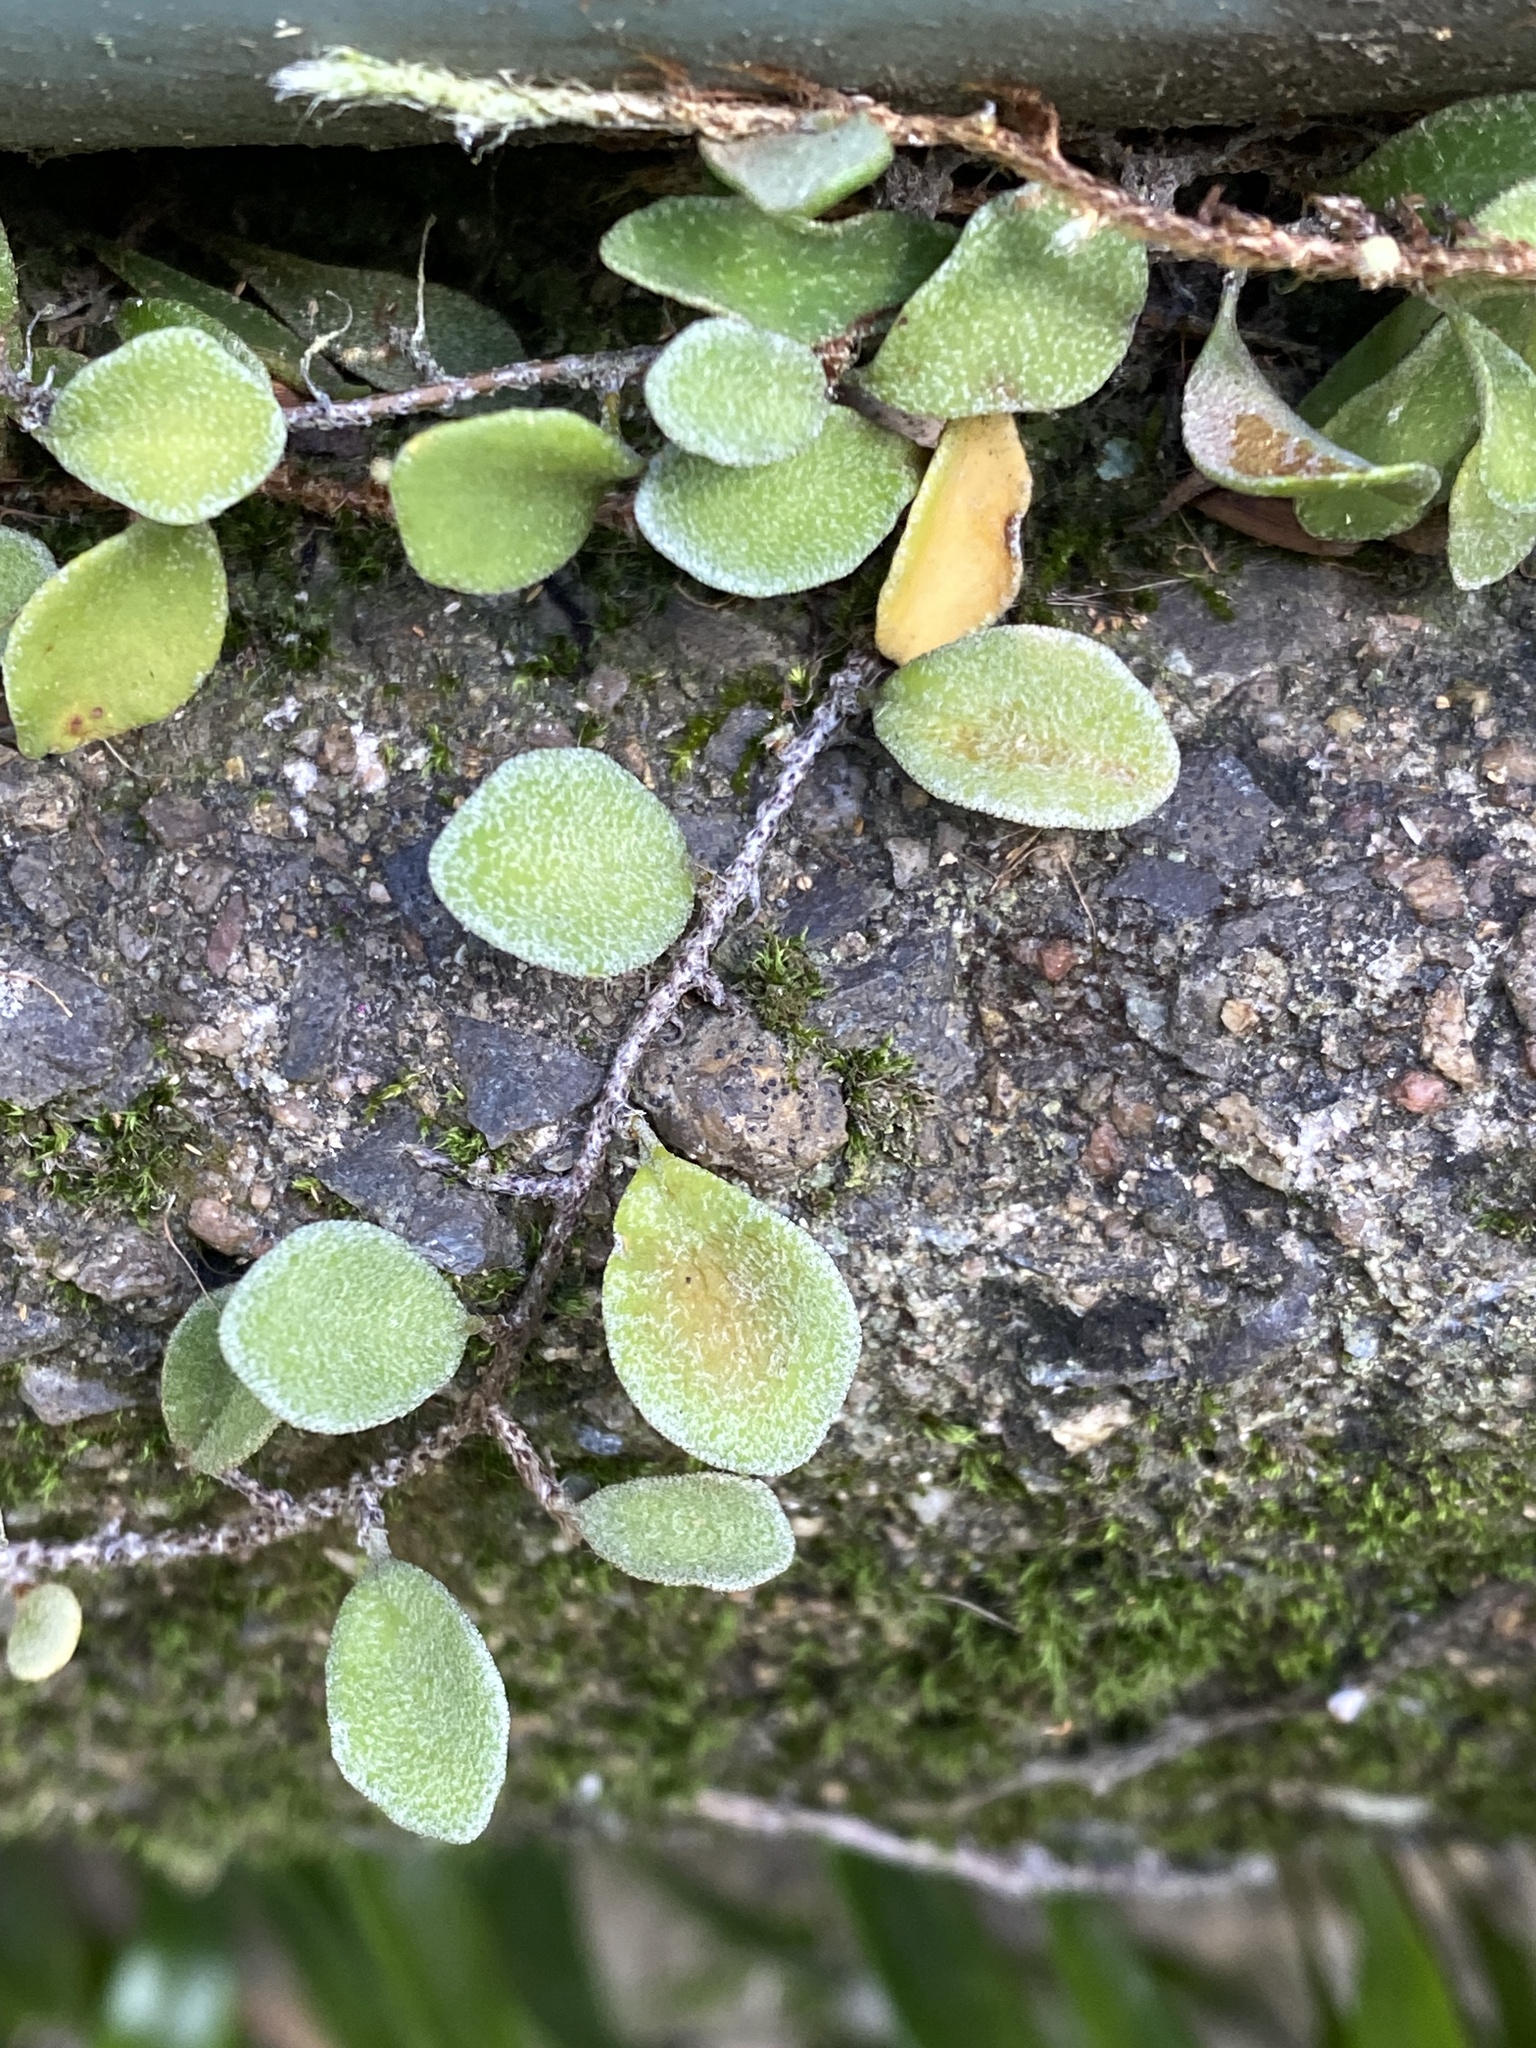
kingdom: Plantae
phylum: Tracheophyta
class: Polypodiopsida
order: Polypodiales
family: Polypodiaceae
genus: Pyrrosia
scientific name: Pyrrosia rupestris
